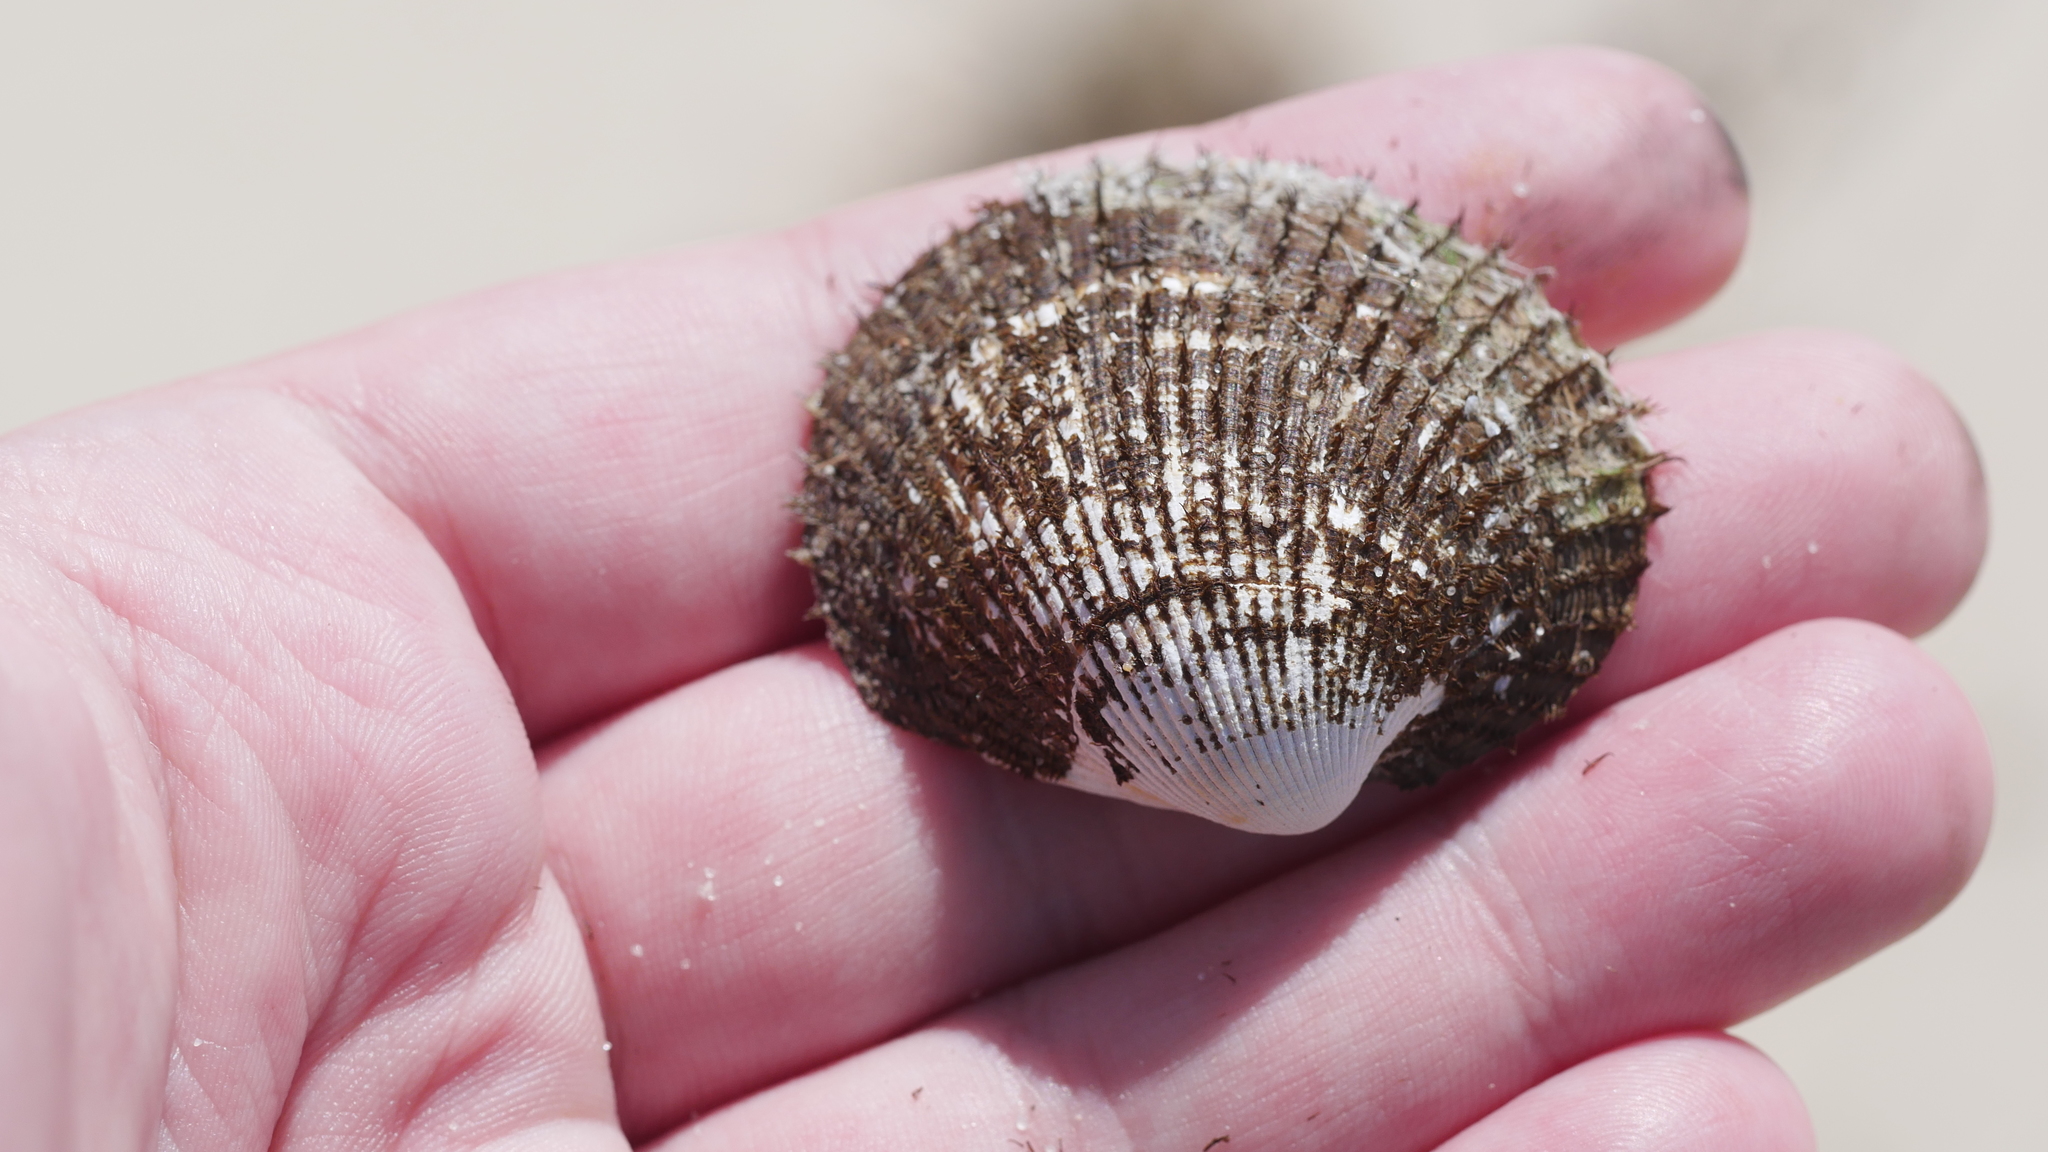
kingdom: Animalia
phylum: Mollusca
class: Bivalvia
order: Arcida
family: Arcidae
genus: Lunarca
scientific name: Lunarca ovalis
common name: Blood ark
